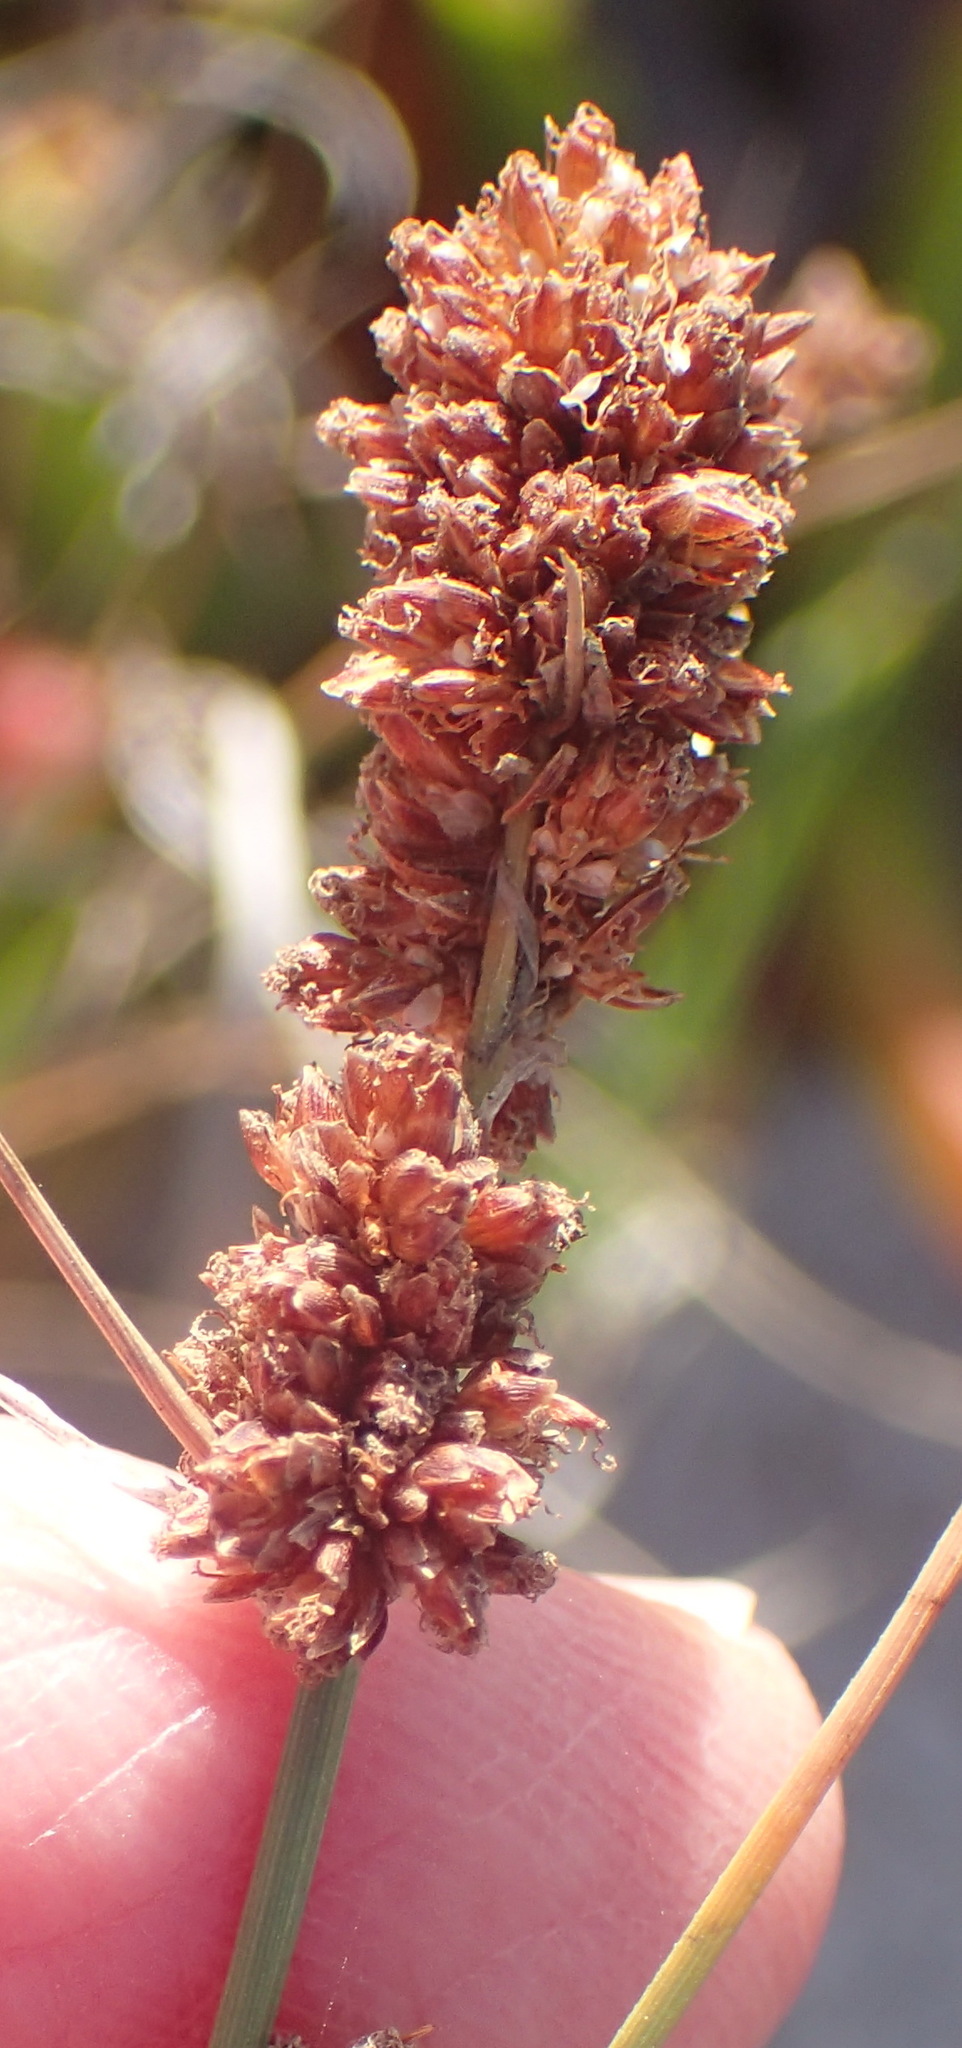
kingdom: Plantae
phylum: Tracheophyta
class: Liliopsida
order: Poales
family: Cyperaceae
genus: Ficinia
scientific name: Ficinia bulbosa
